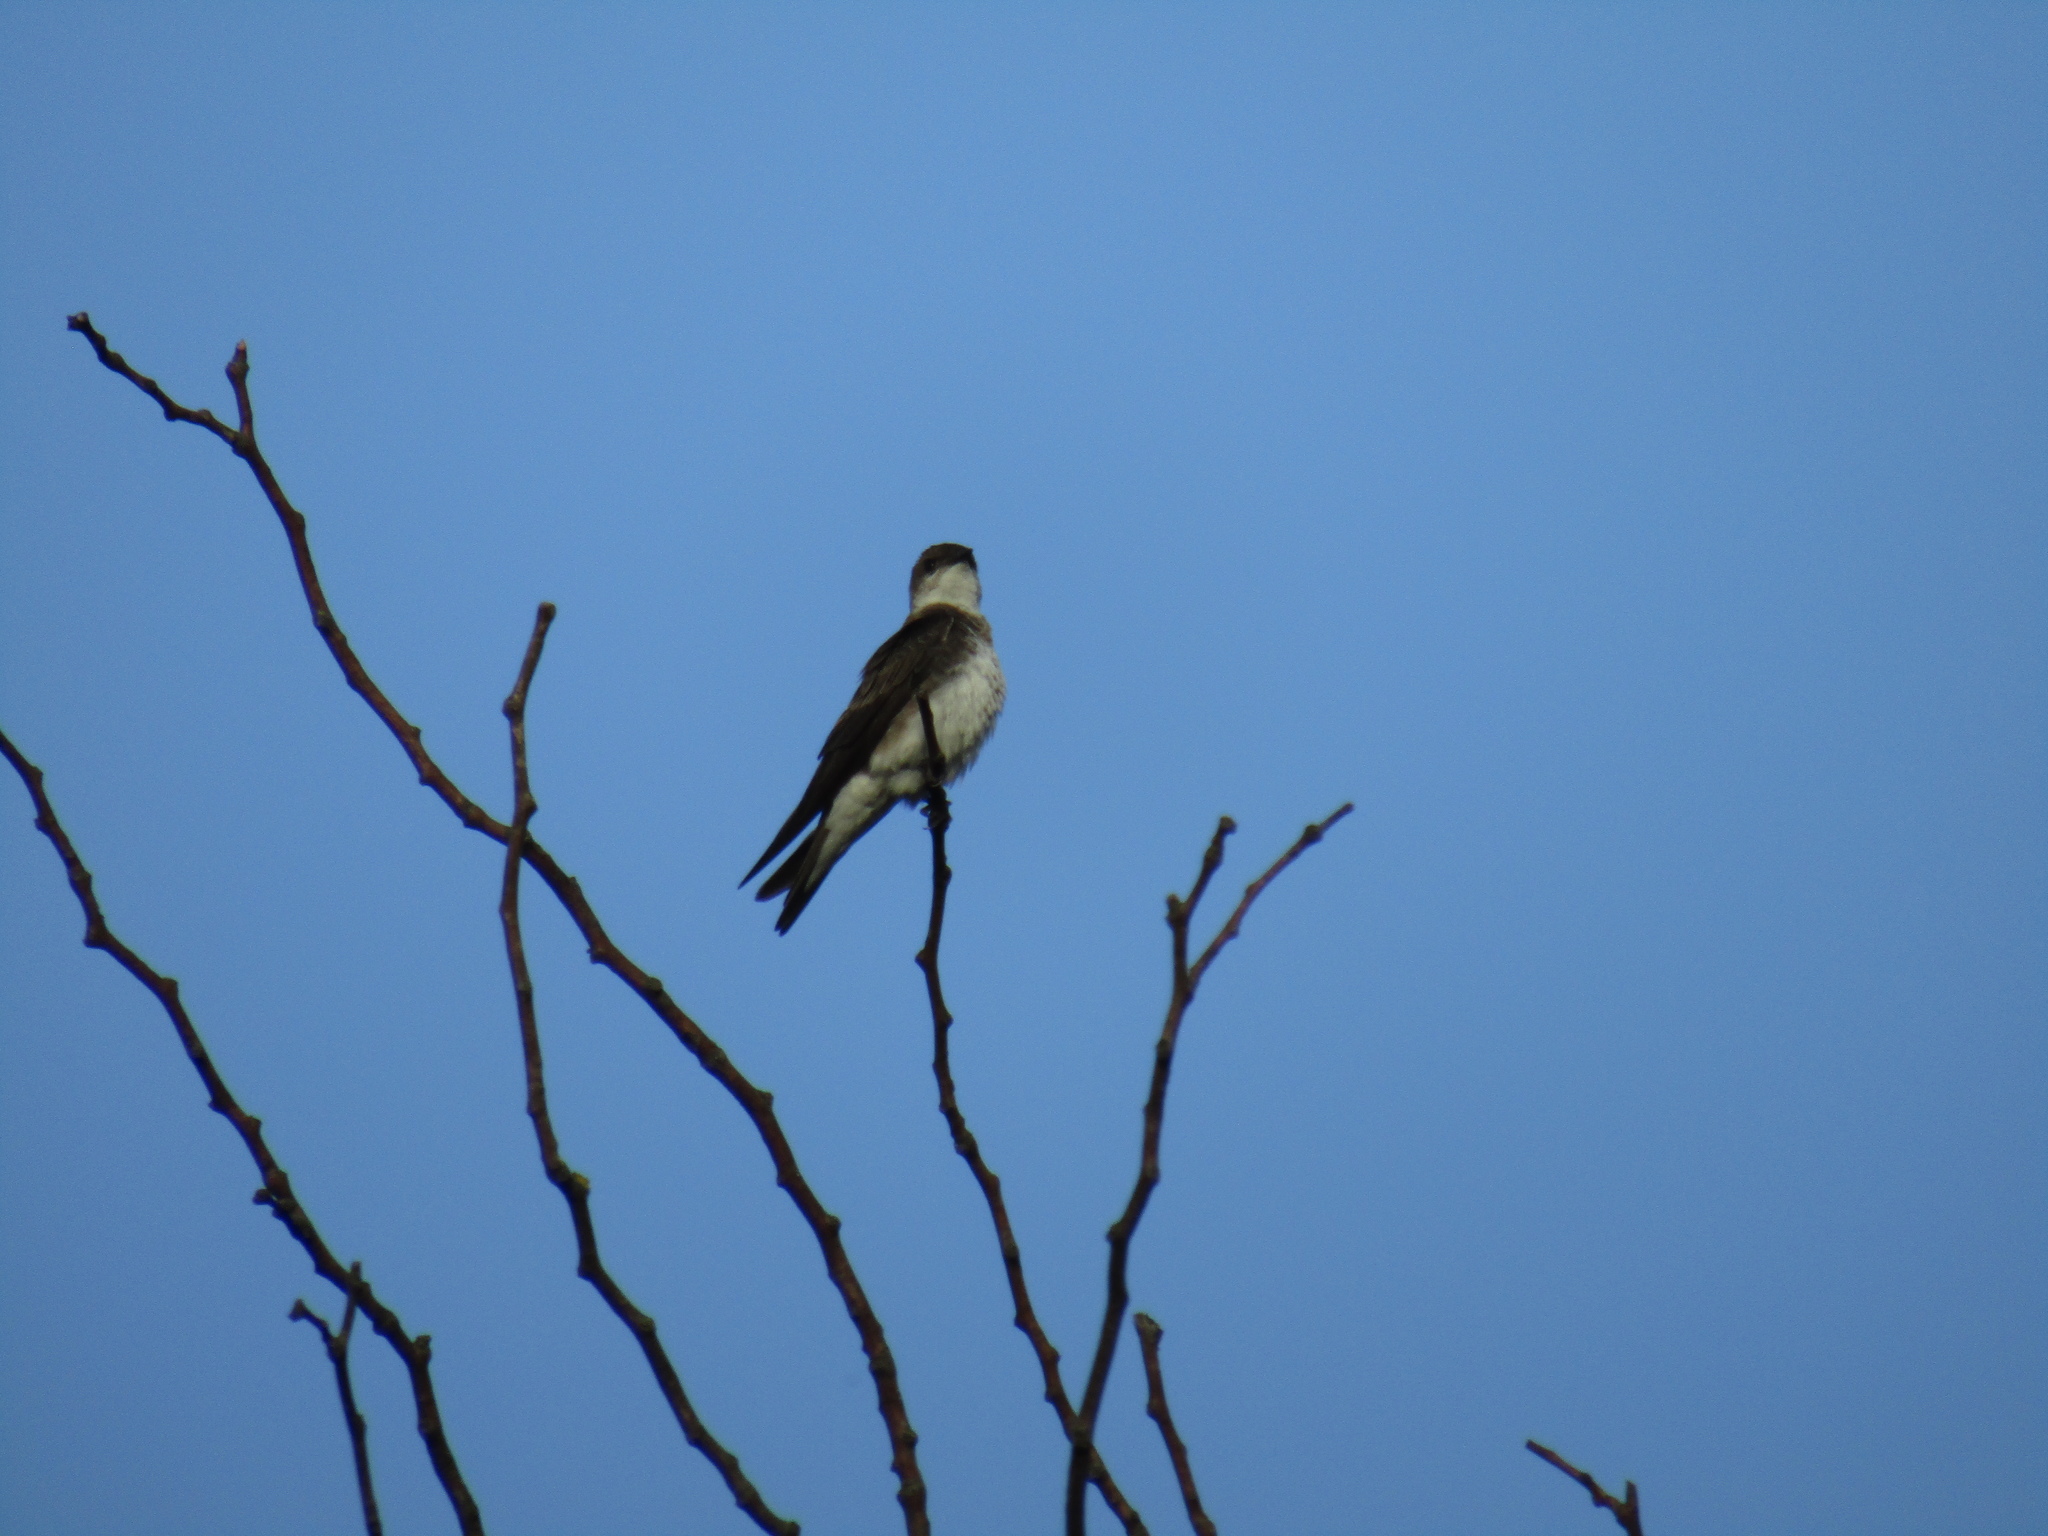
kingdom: Animalia
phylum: Chordata
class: Aves
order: Passeriformes
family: Hirundinidae
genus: Progne
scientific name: Progne tapera
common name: Brown-chested martin
